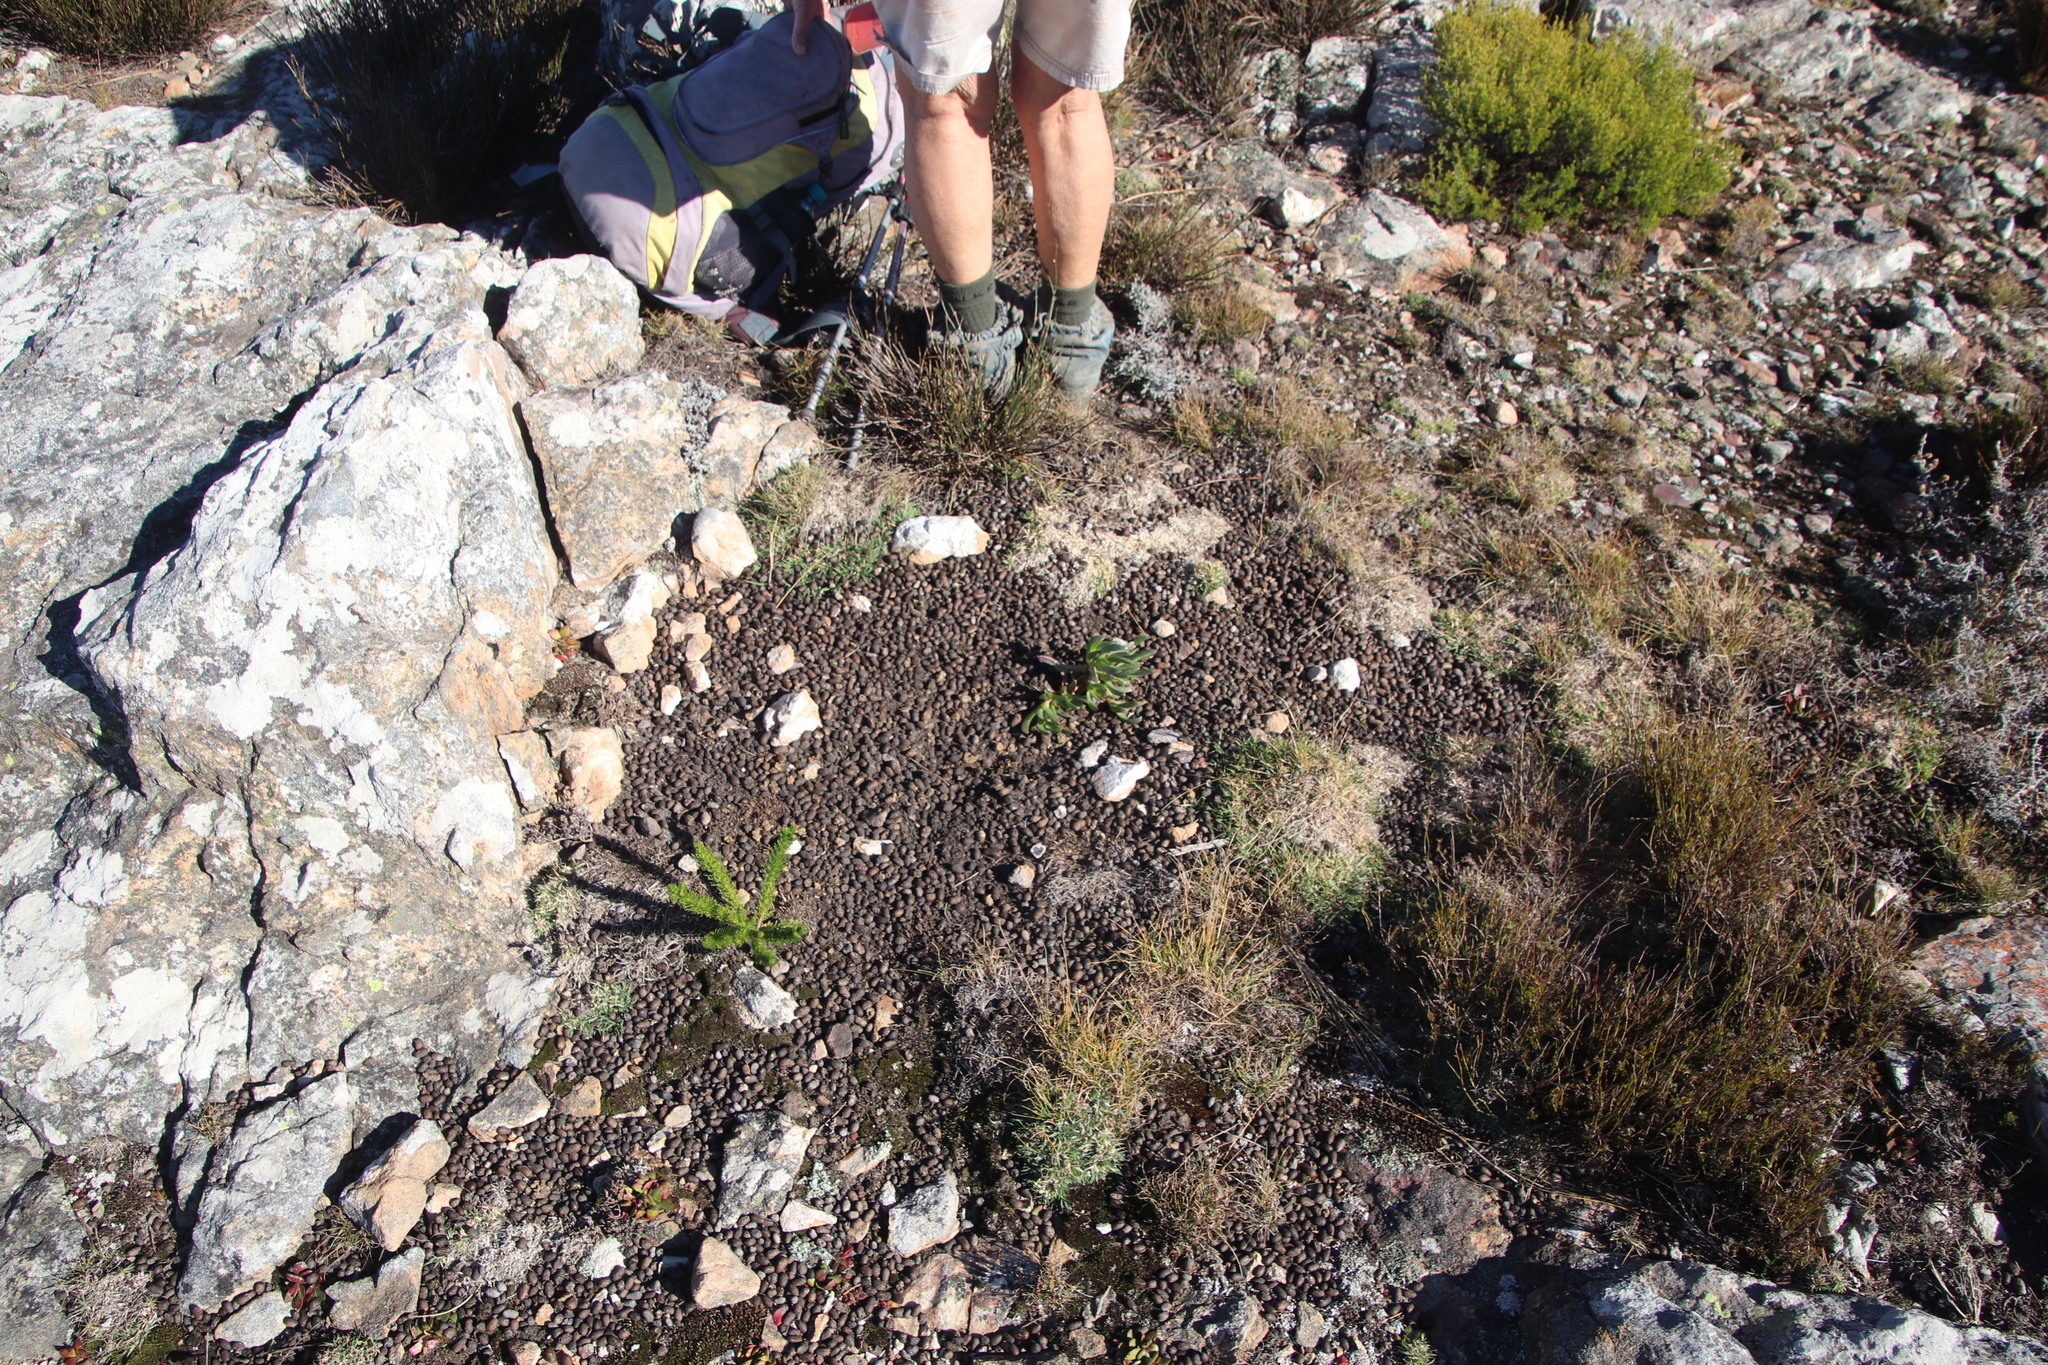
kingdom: Animalia
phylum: Chordata
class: Mammalia
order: Artiodactyla
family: Bovidae
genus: Oreotragus
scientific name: Oreotragus oreotragus
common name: Klipspringer
